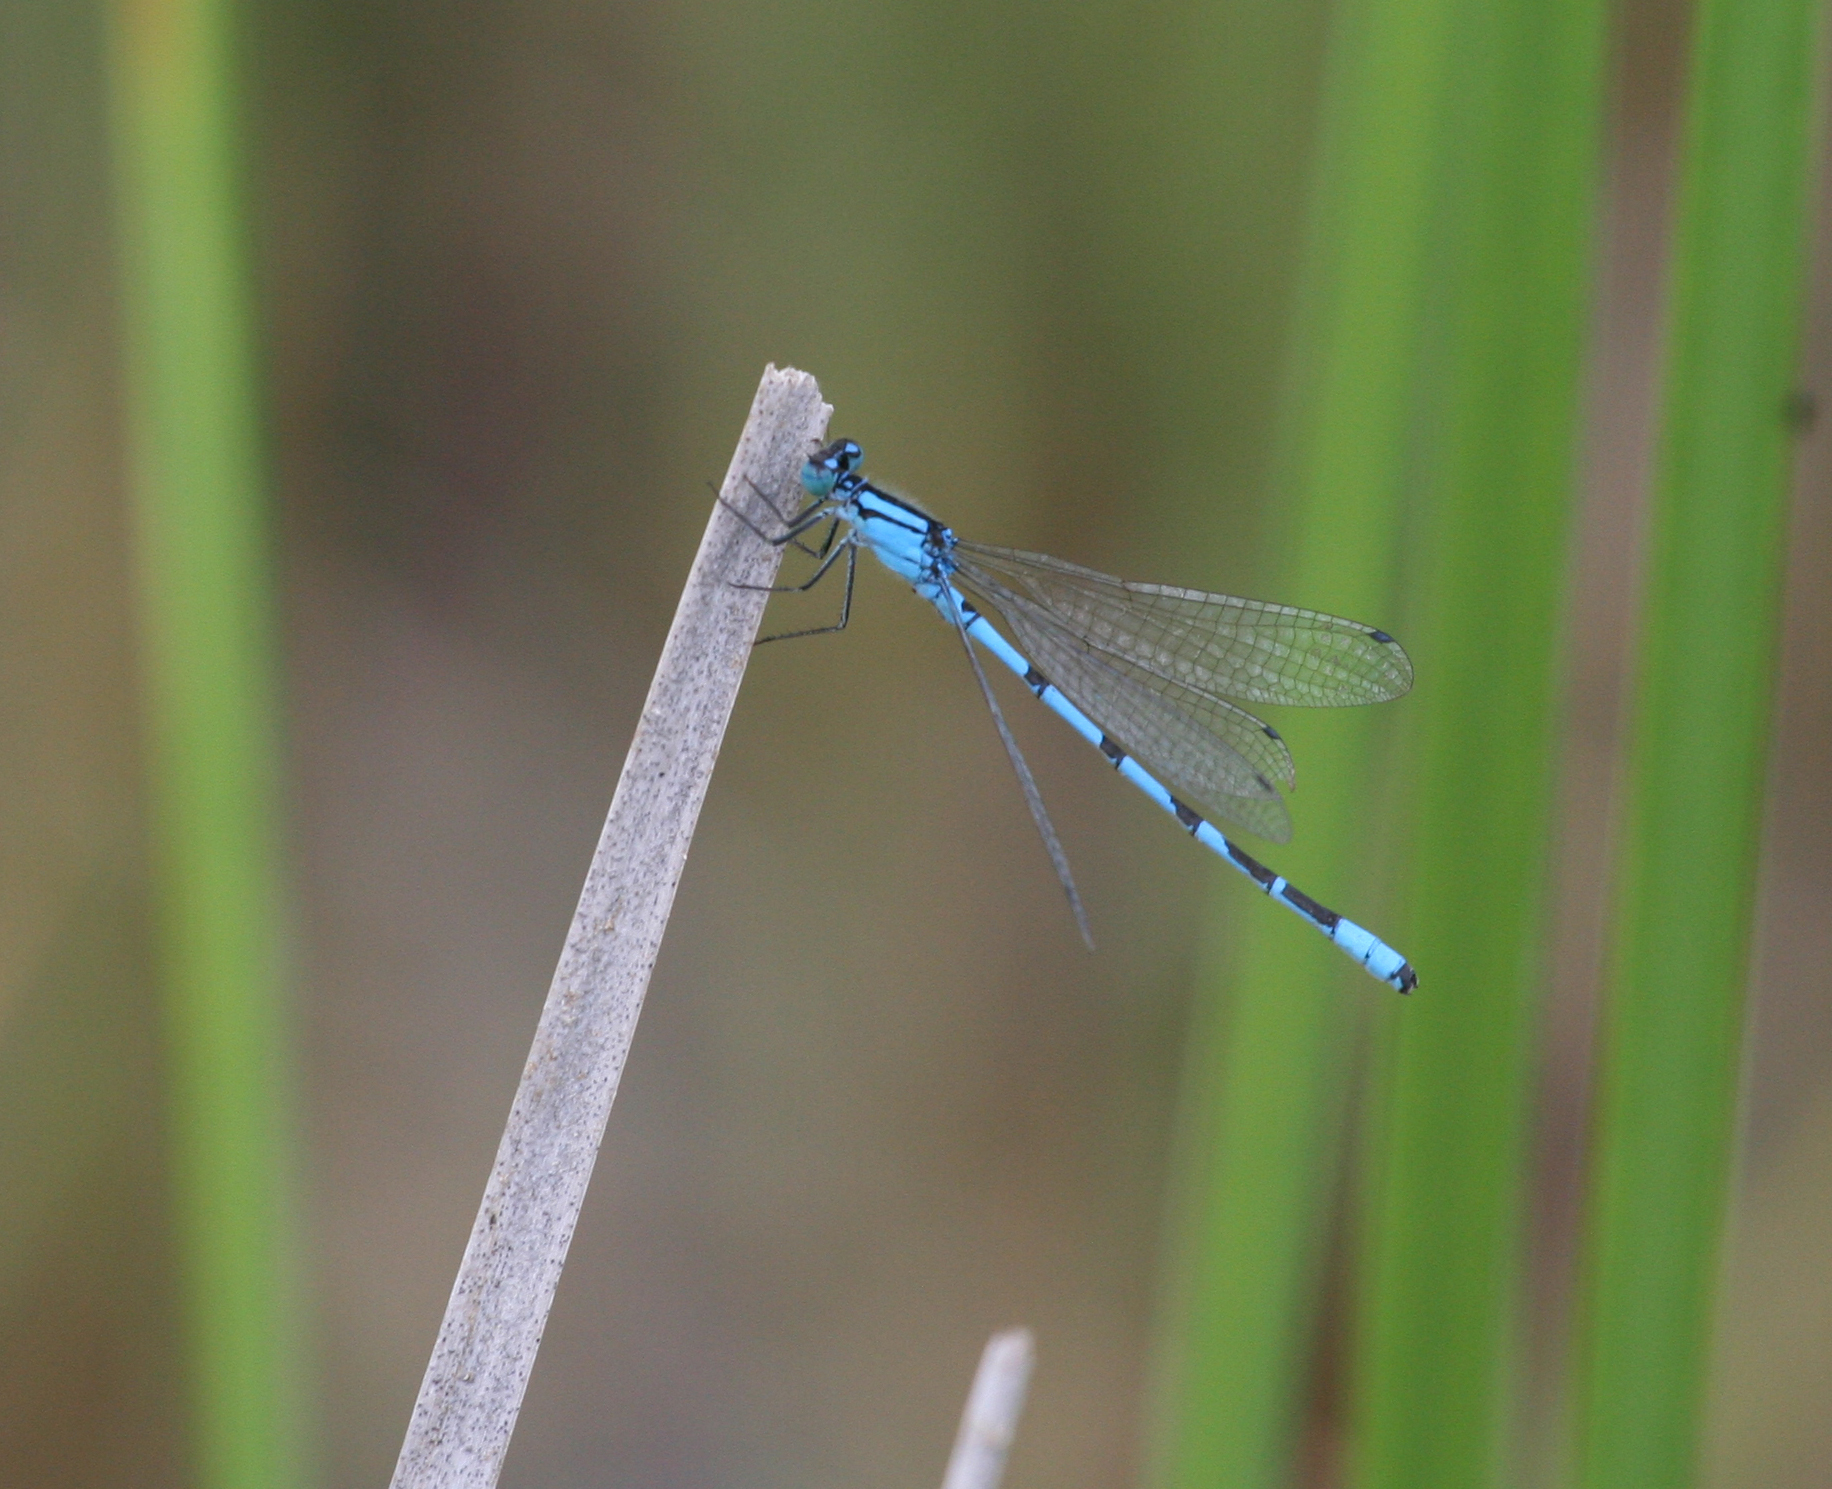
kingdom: Animalia
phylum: Arthropoda
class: Insecta
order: Odonata
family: Coenagrionidae
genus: Enallagma
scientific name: Enallagma cyathigerum
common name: Common blue damselfly
